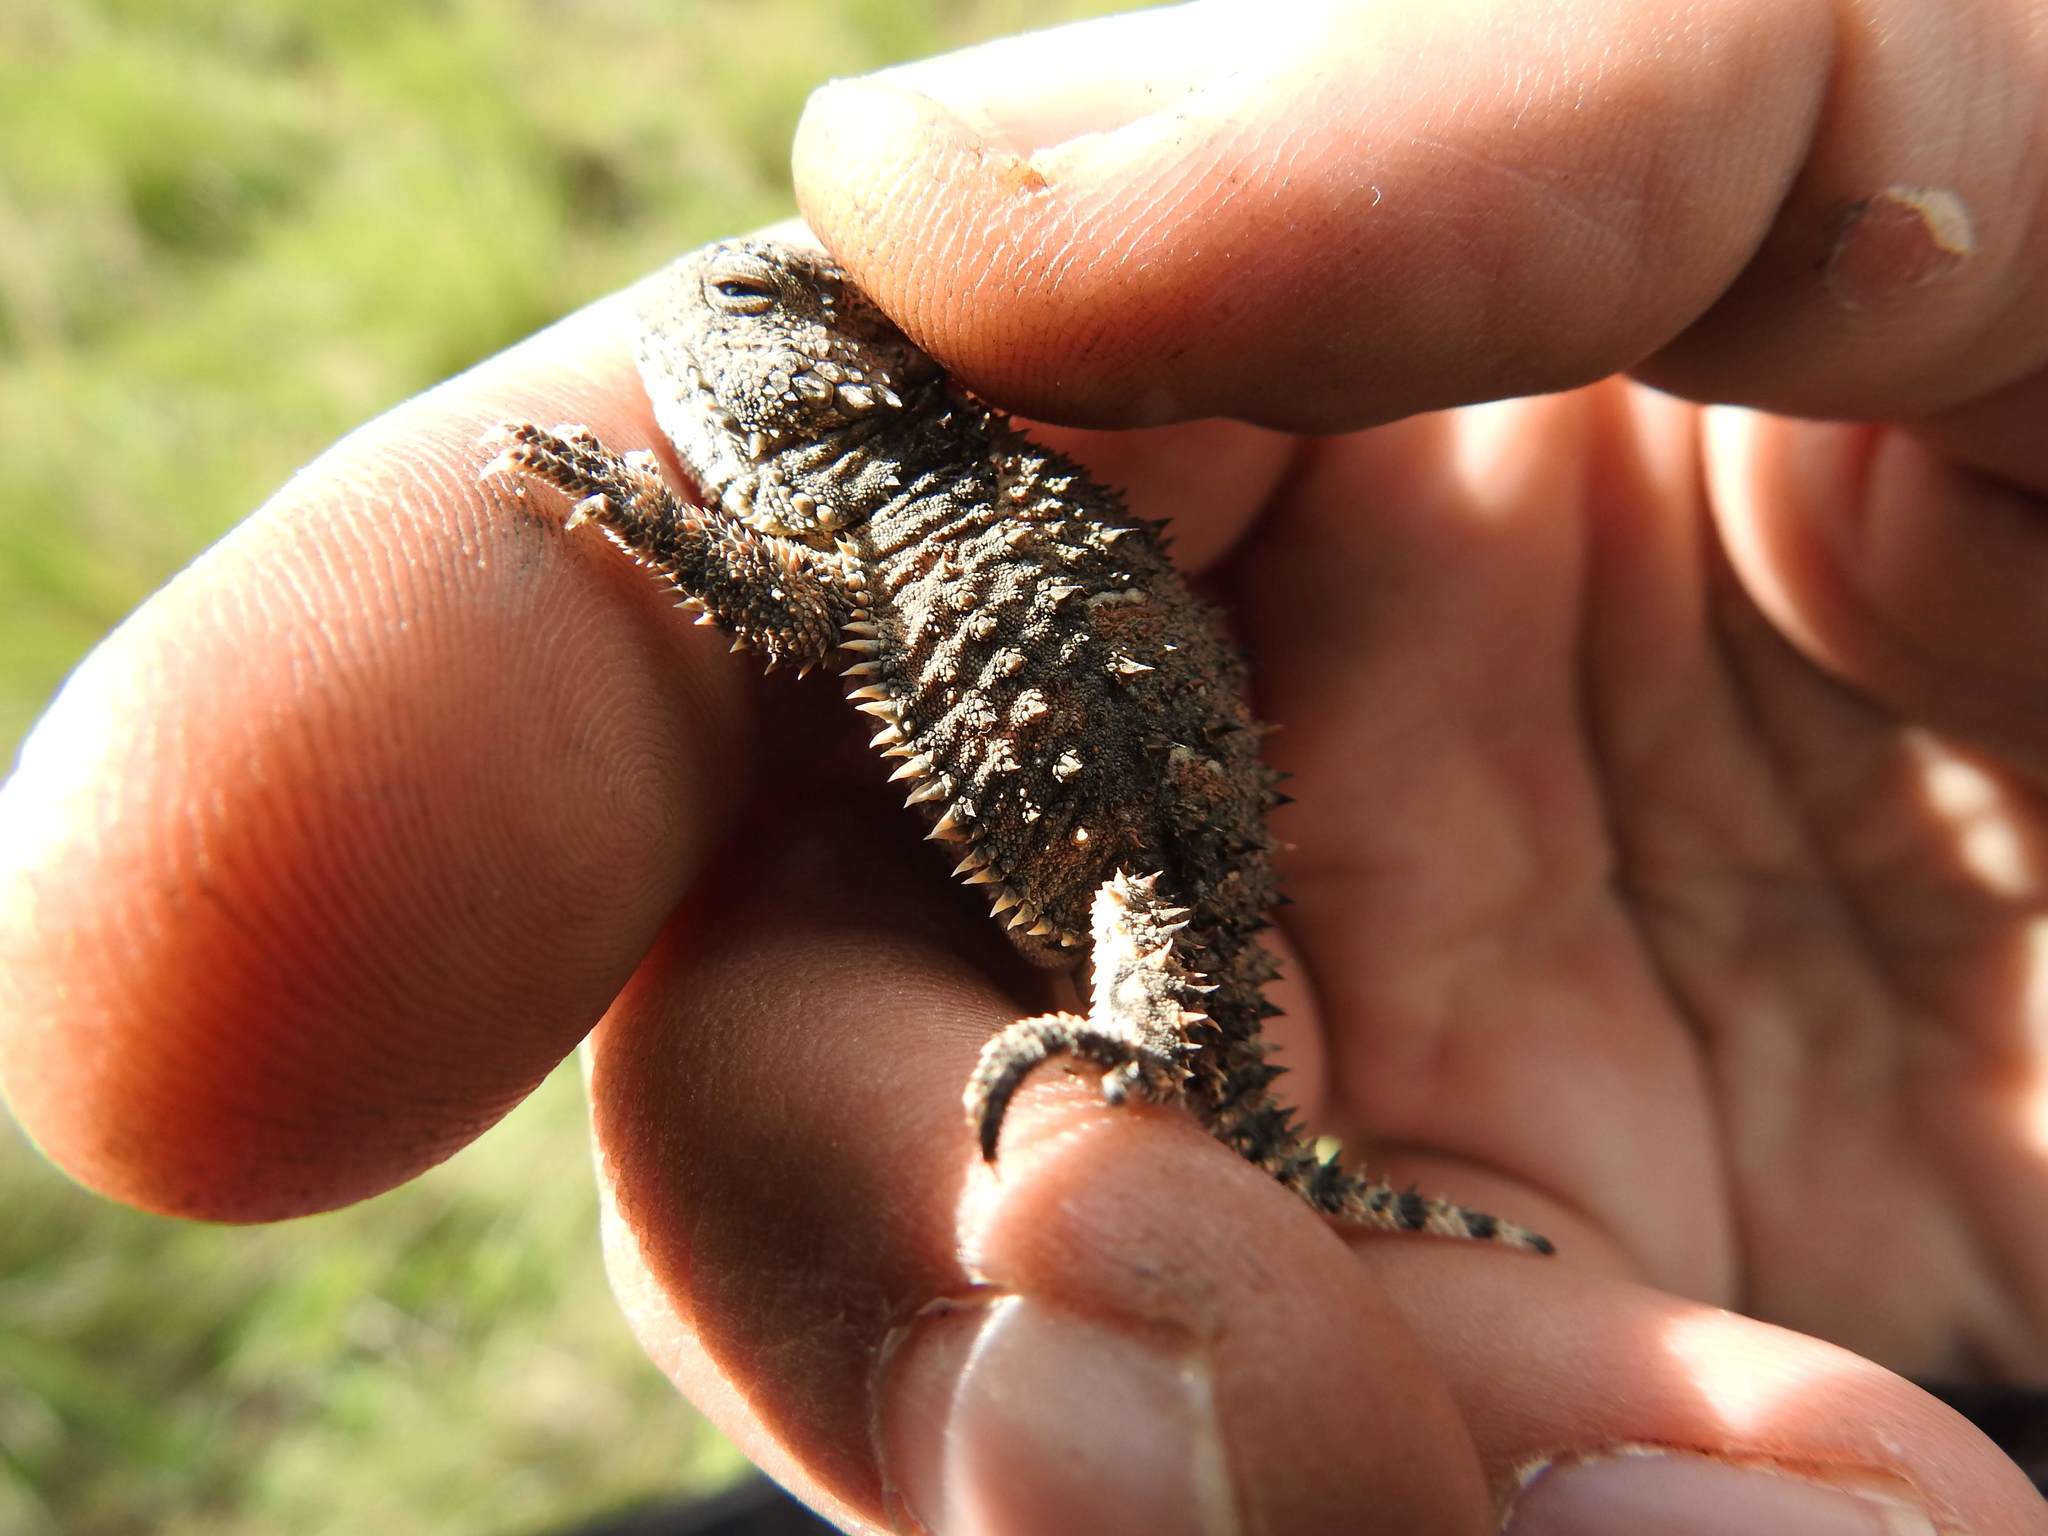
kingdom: Animalia
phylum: Chordata
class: Squamata
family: Phrynosomatidae
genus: Phrynosoma
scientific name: Phrynosoma orbiculare
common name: Mountain horned lizard
